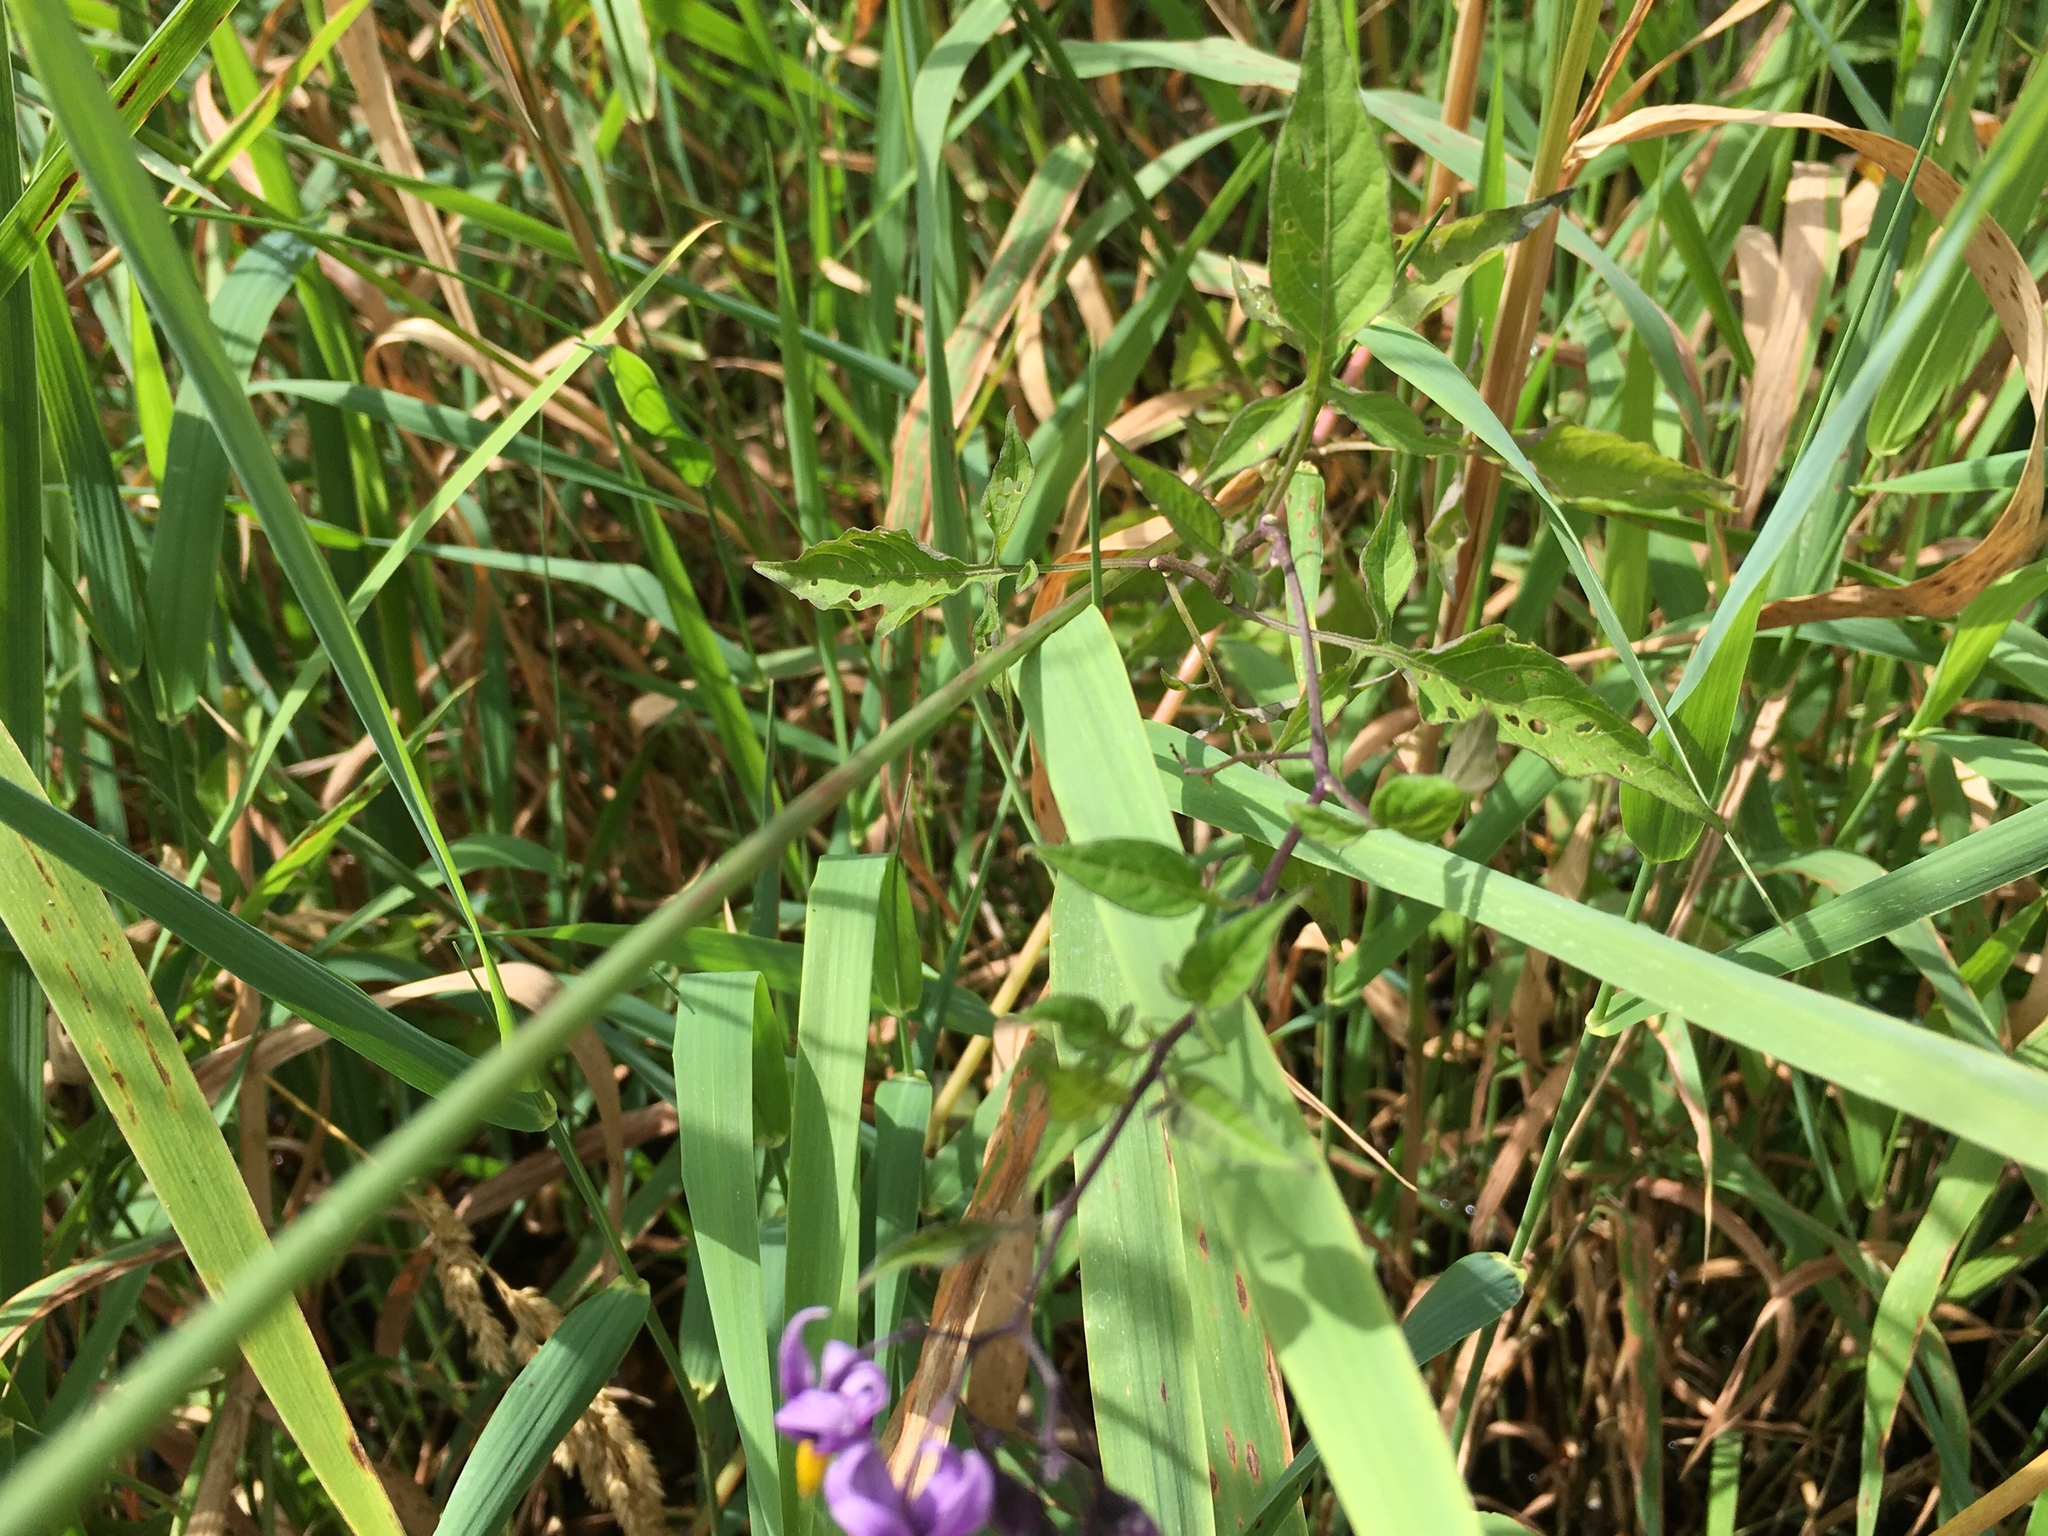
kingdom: Plantae
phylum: Tracheophyta
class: Magnoliopsida
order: Solanales
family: Solanaceae
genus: Solanum
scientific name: Solanum dulcamara
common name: Climbing nightshade
